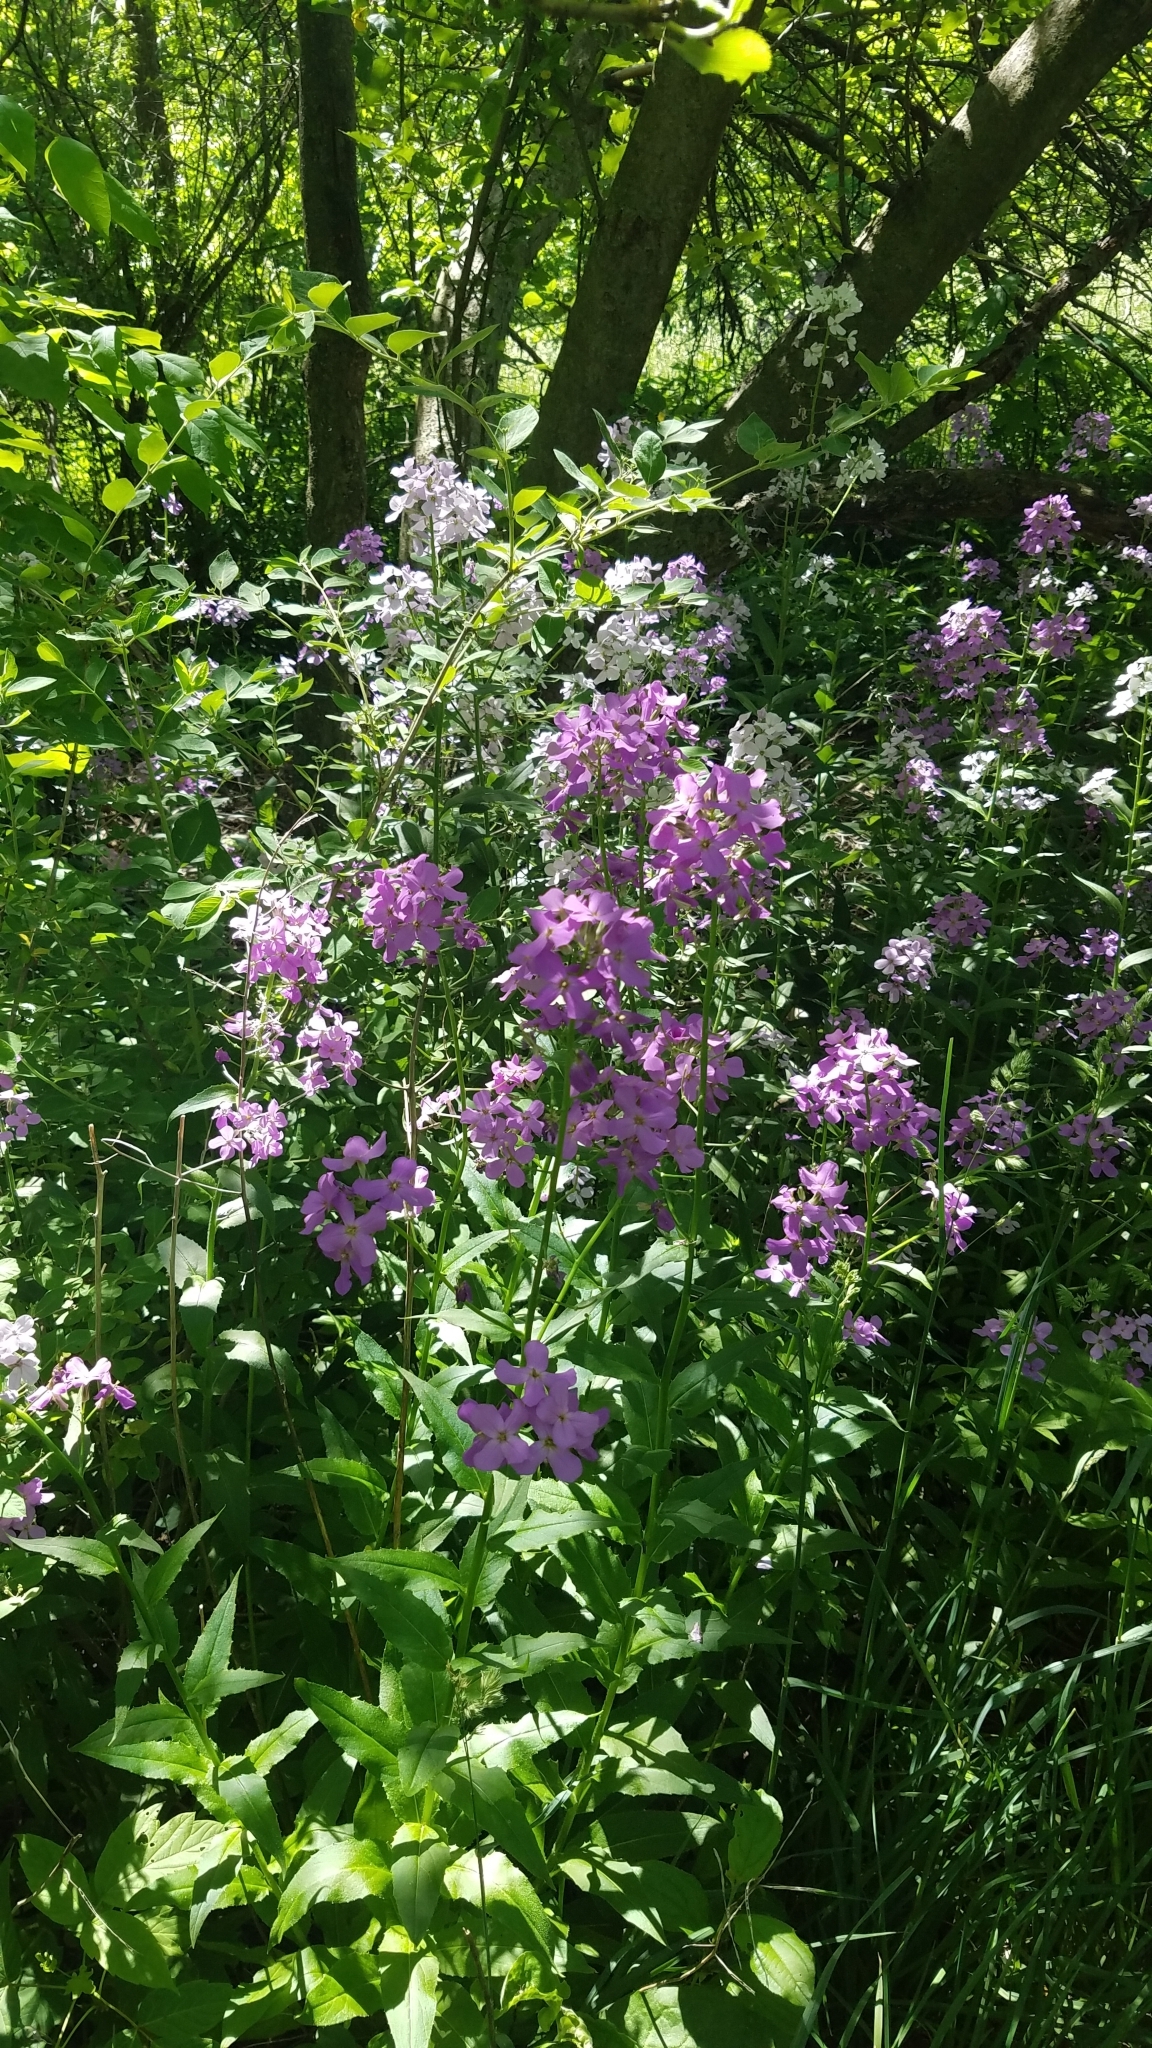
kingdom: Plantae
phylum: Tracheophyta
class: Magnoliopsida
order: Brassicales
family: Brassicaceae
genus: Hesperis
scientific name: Hesperis matronalis
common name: Dame's-violet
